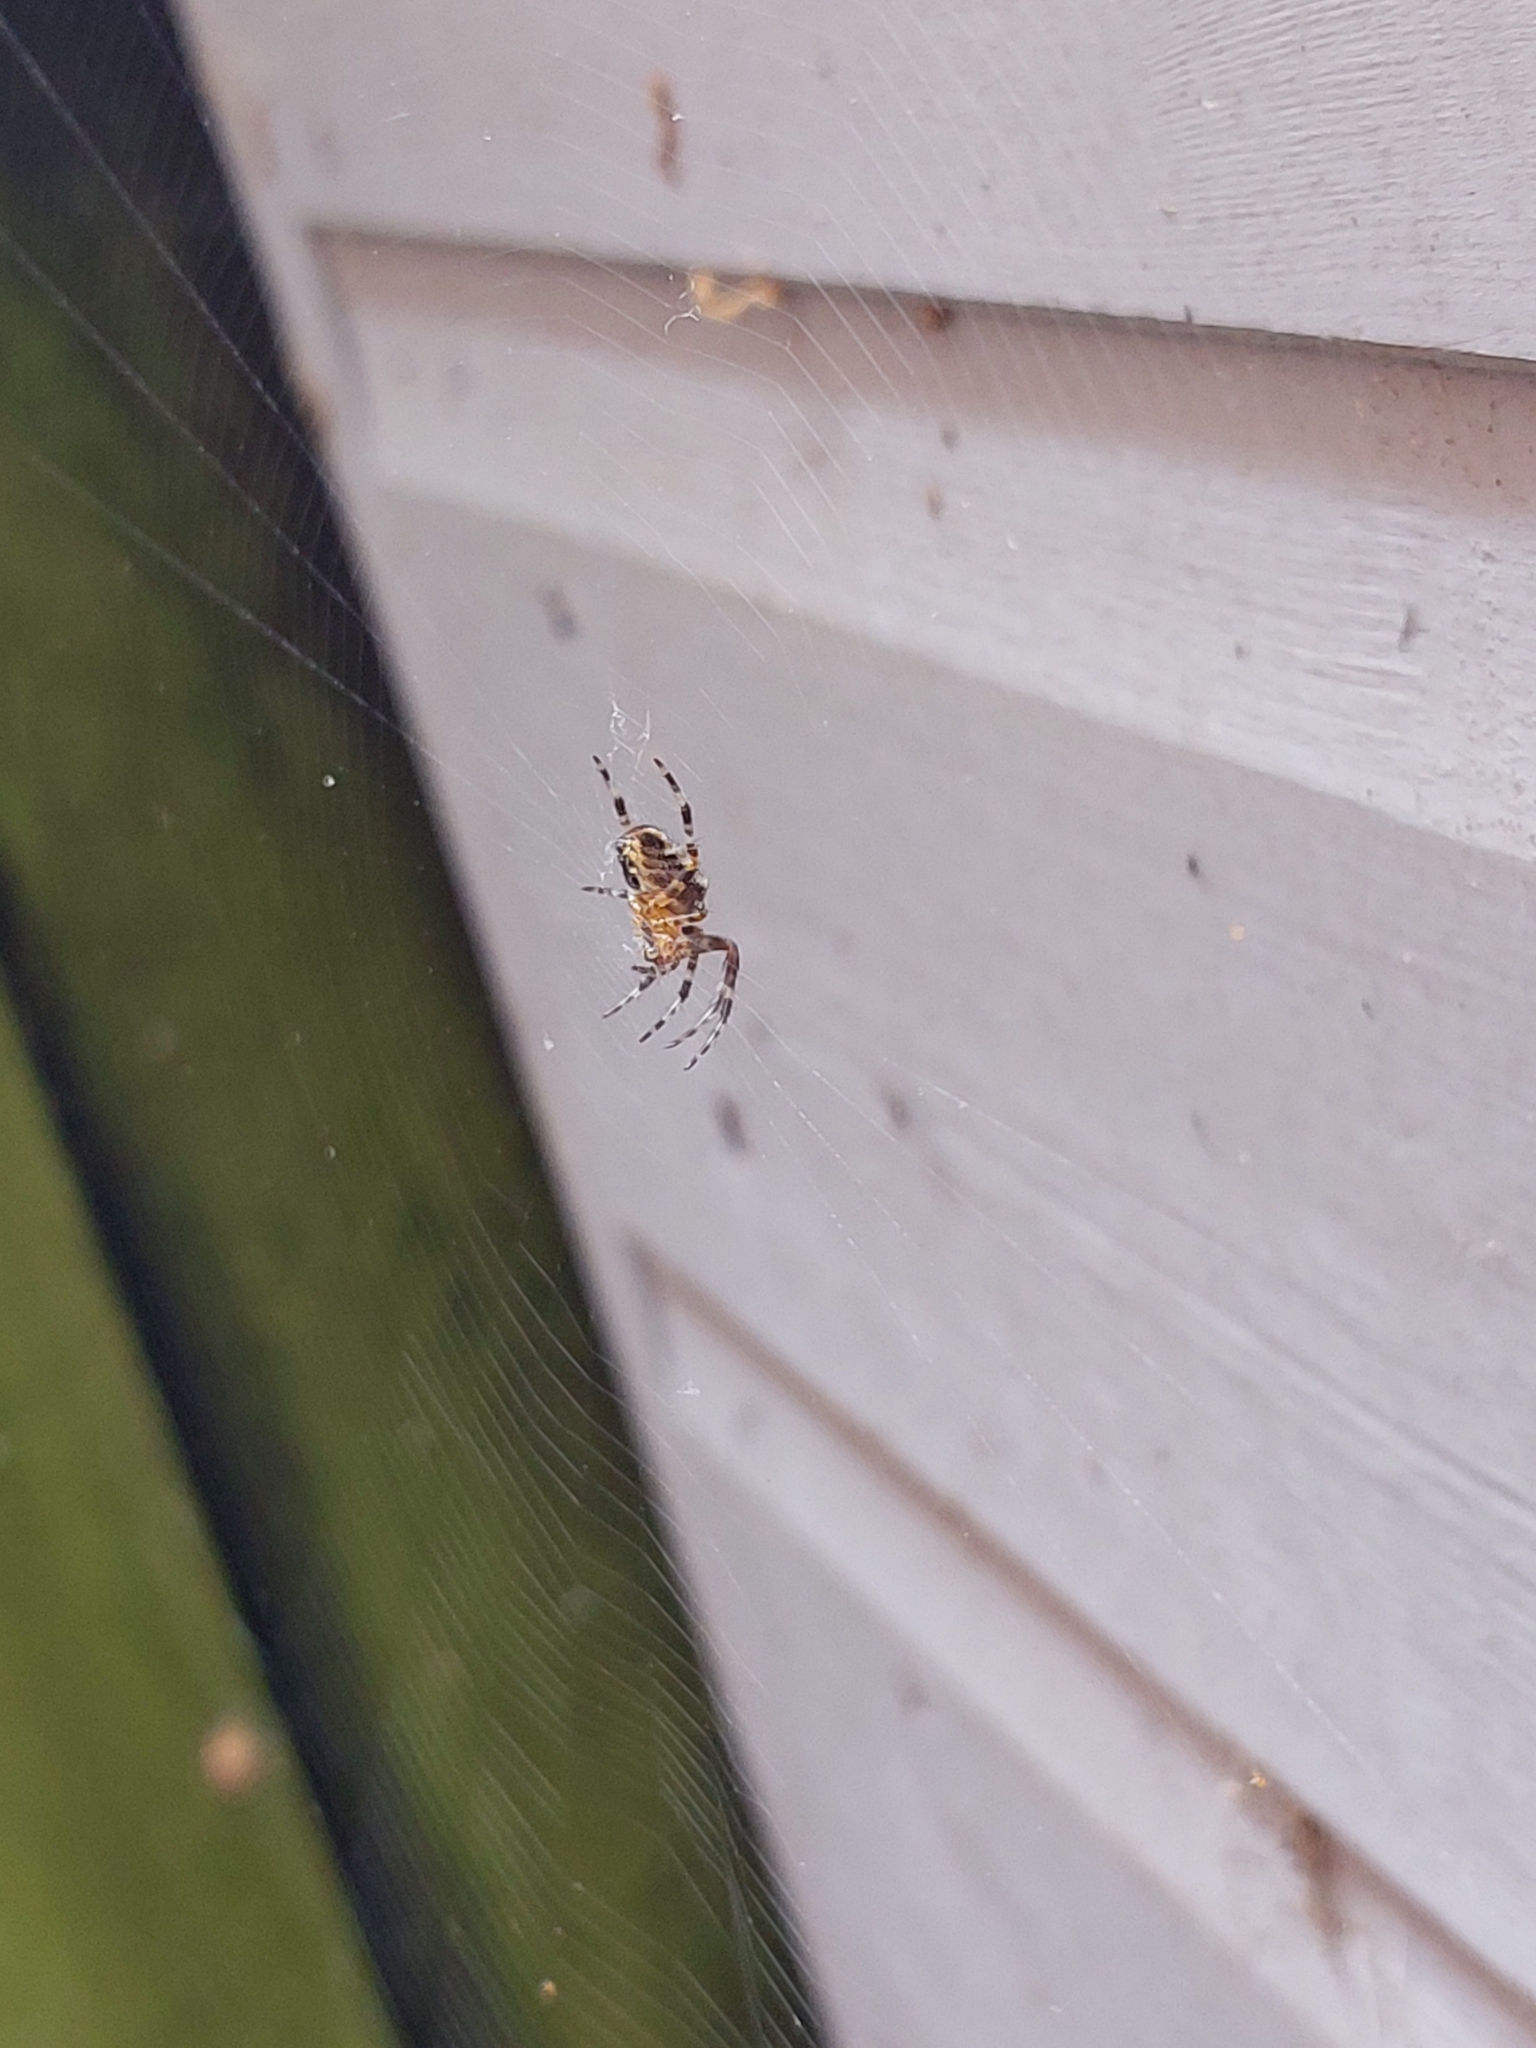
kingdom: Animalia
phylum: Arthropoda
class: Arachnida
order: Araneae
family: Araneidae
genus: Araneus
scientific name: Araneus diadematus
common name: Cross orbweaver
